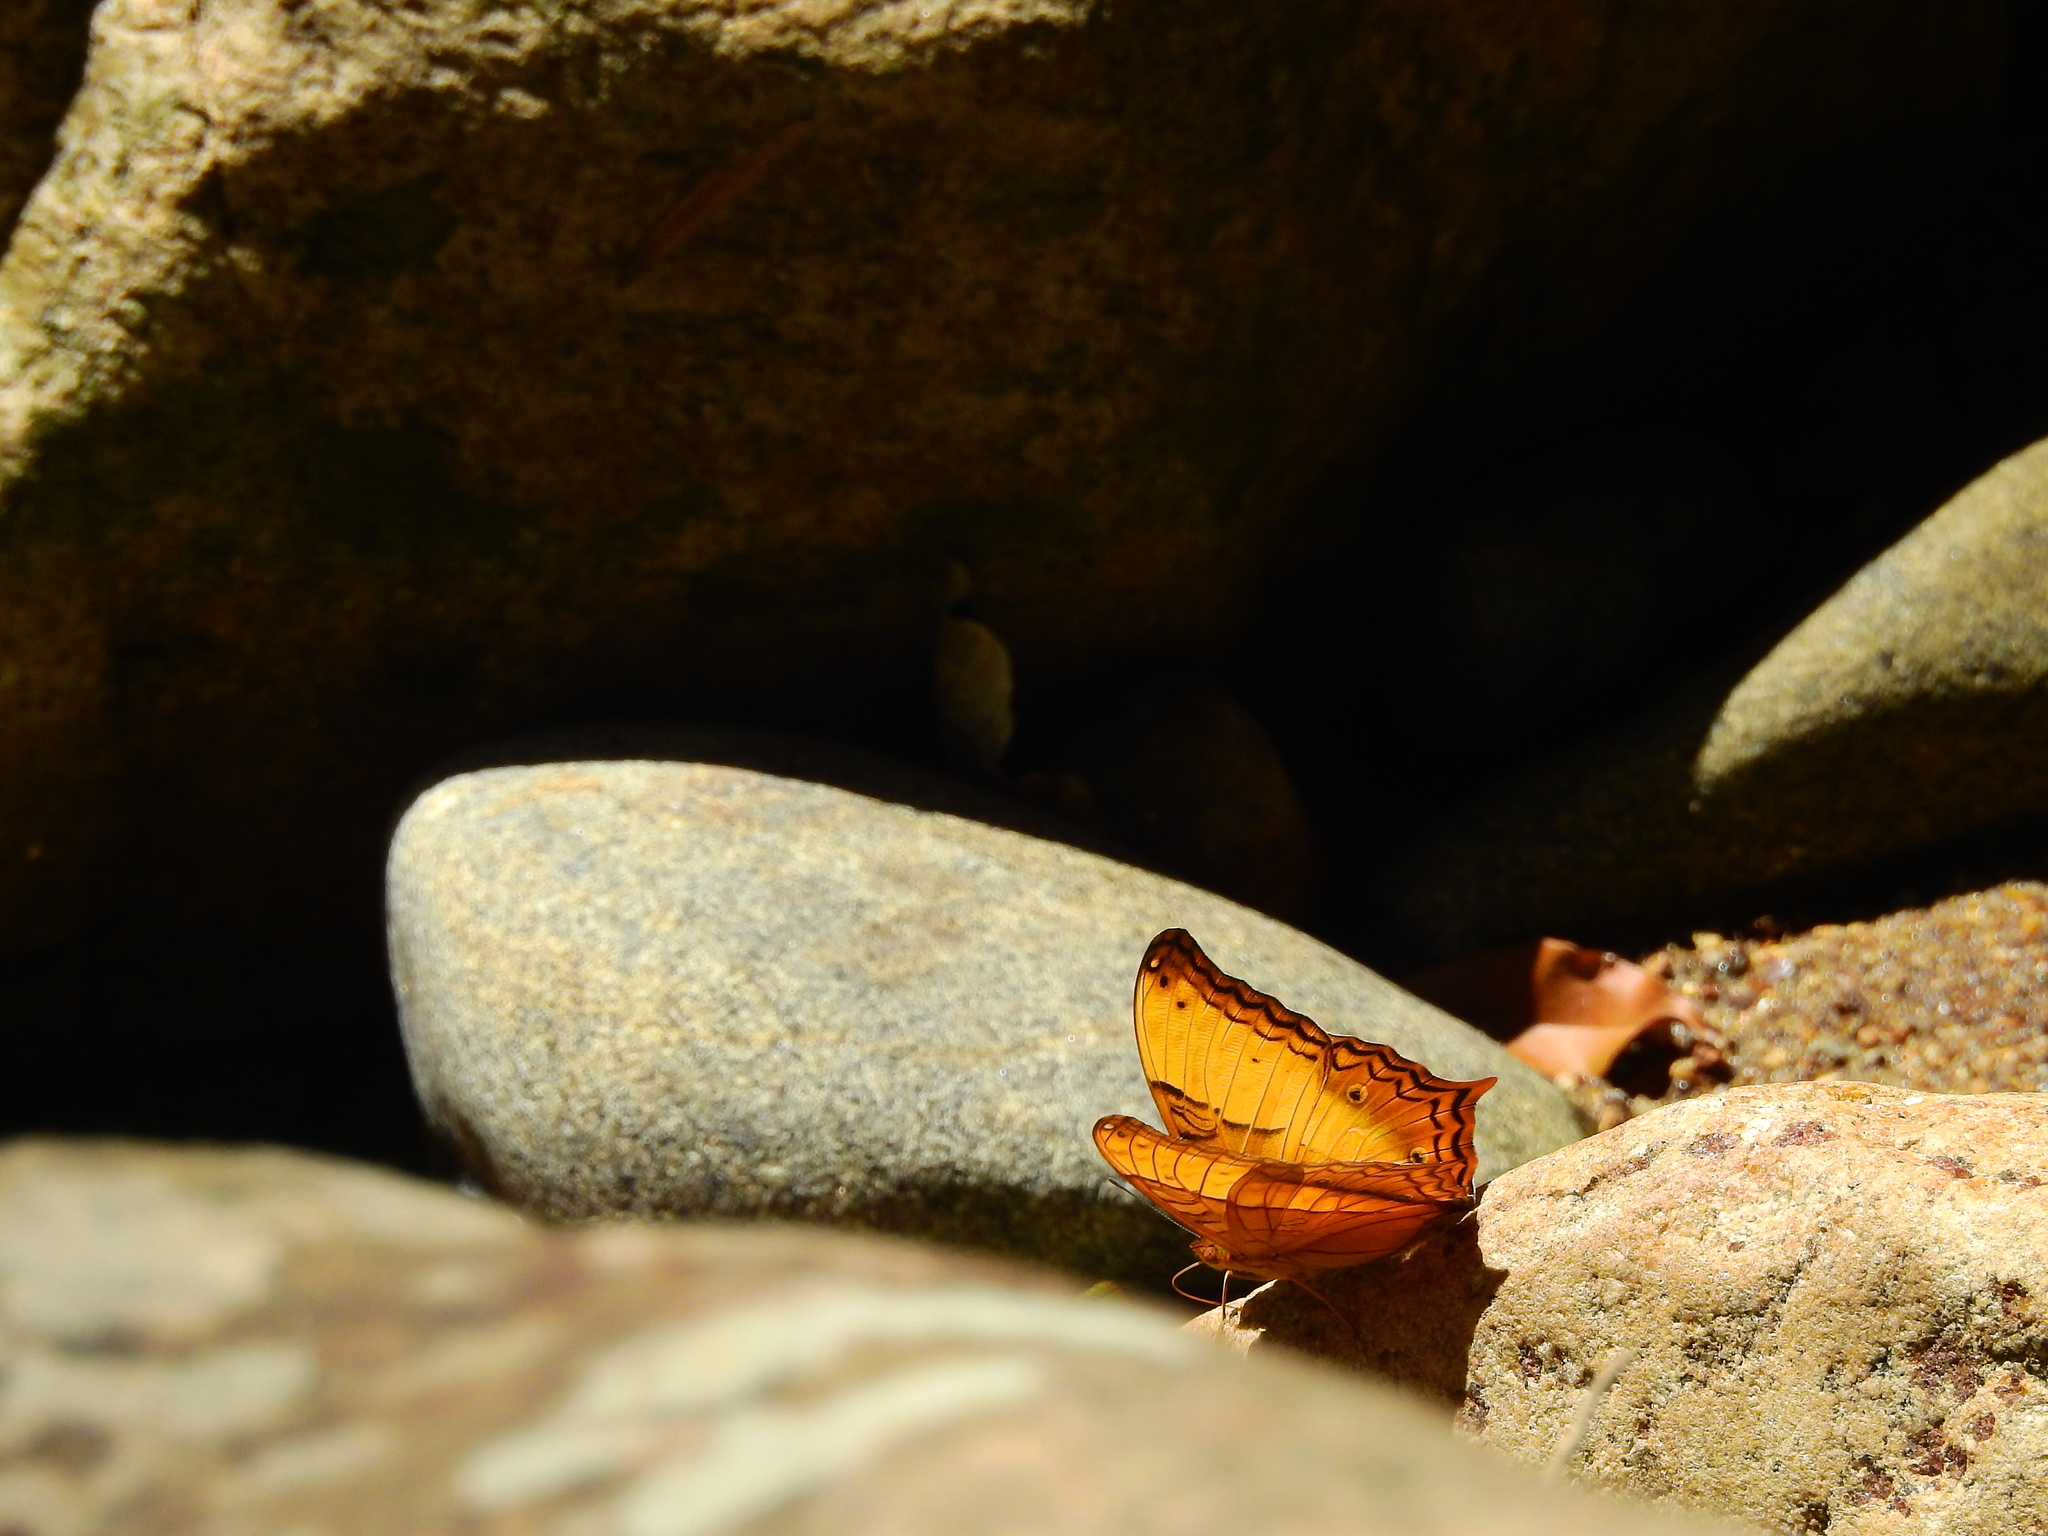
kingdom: Animalia
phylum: Arthropoda
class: Insecta
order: Lepidoptera
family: Nymphalidae
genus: Vindula
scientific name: Vindula erota
